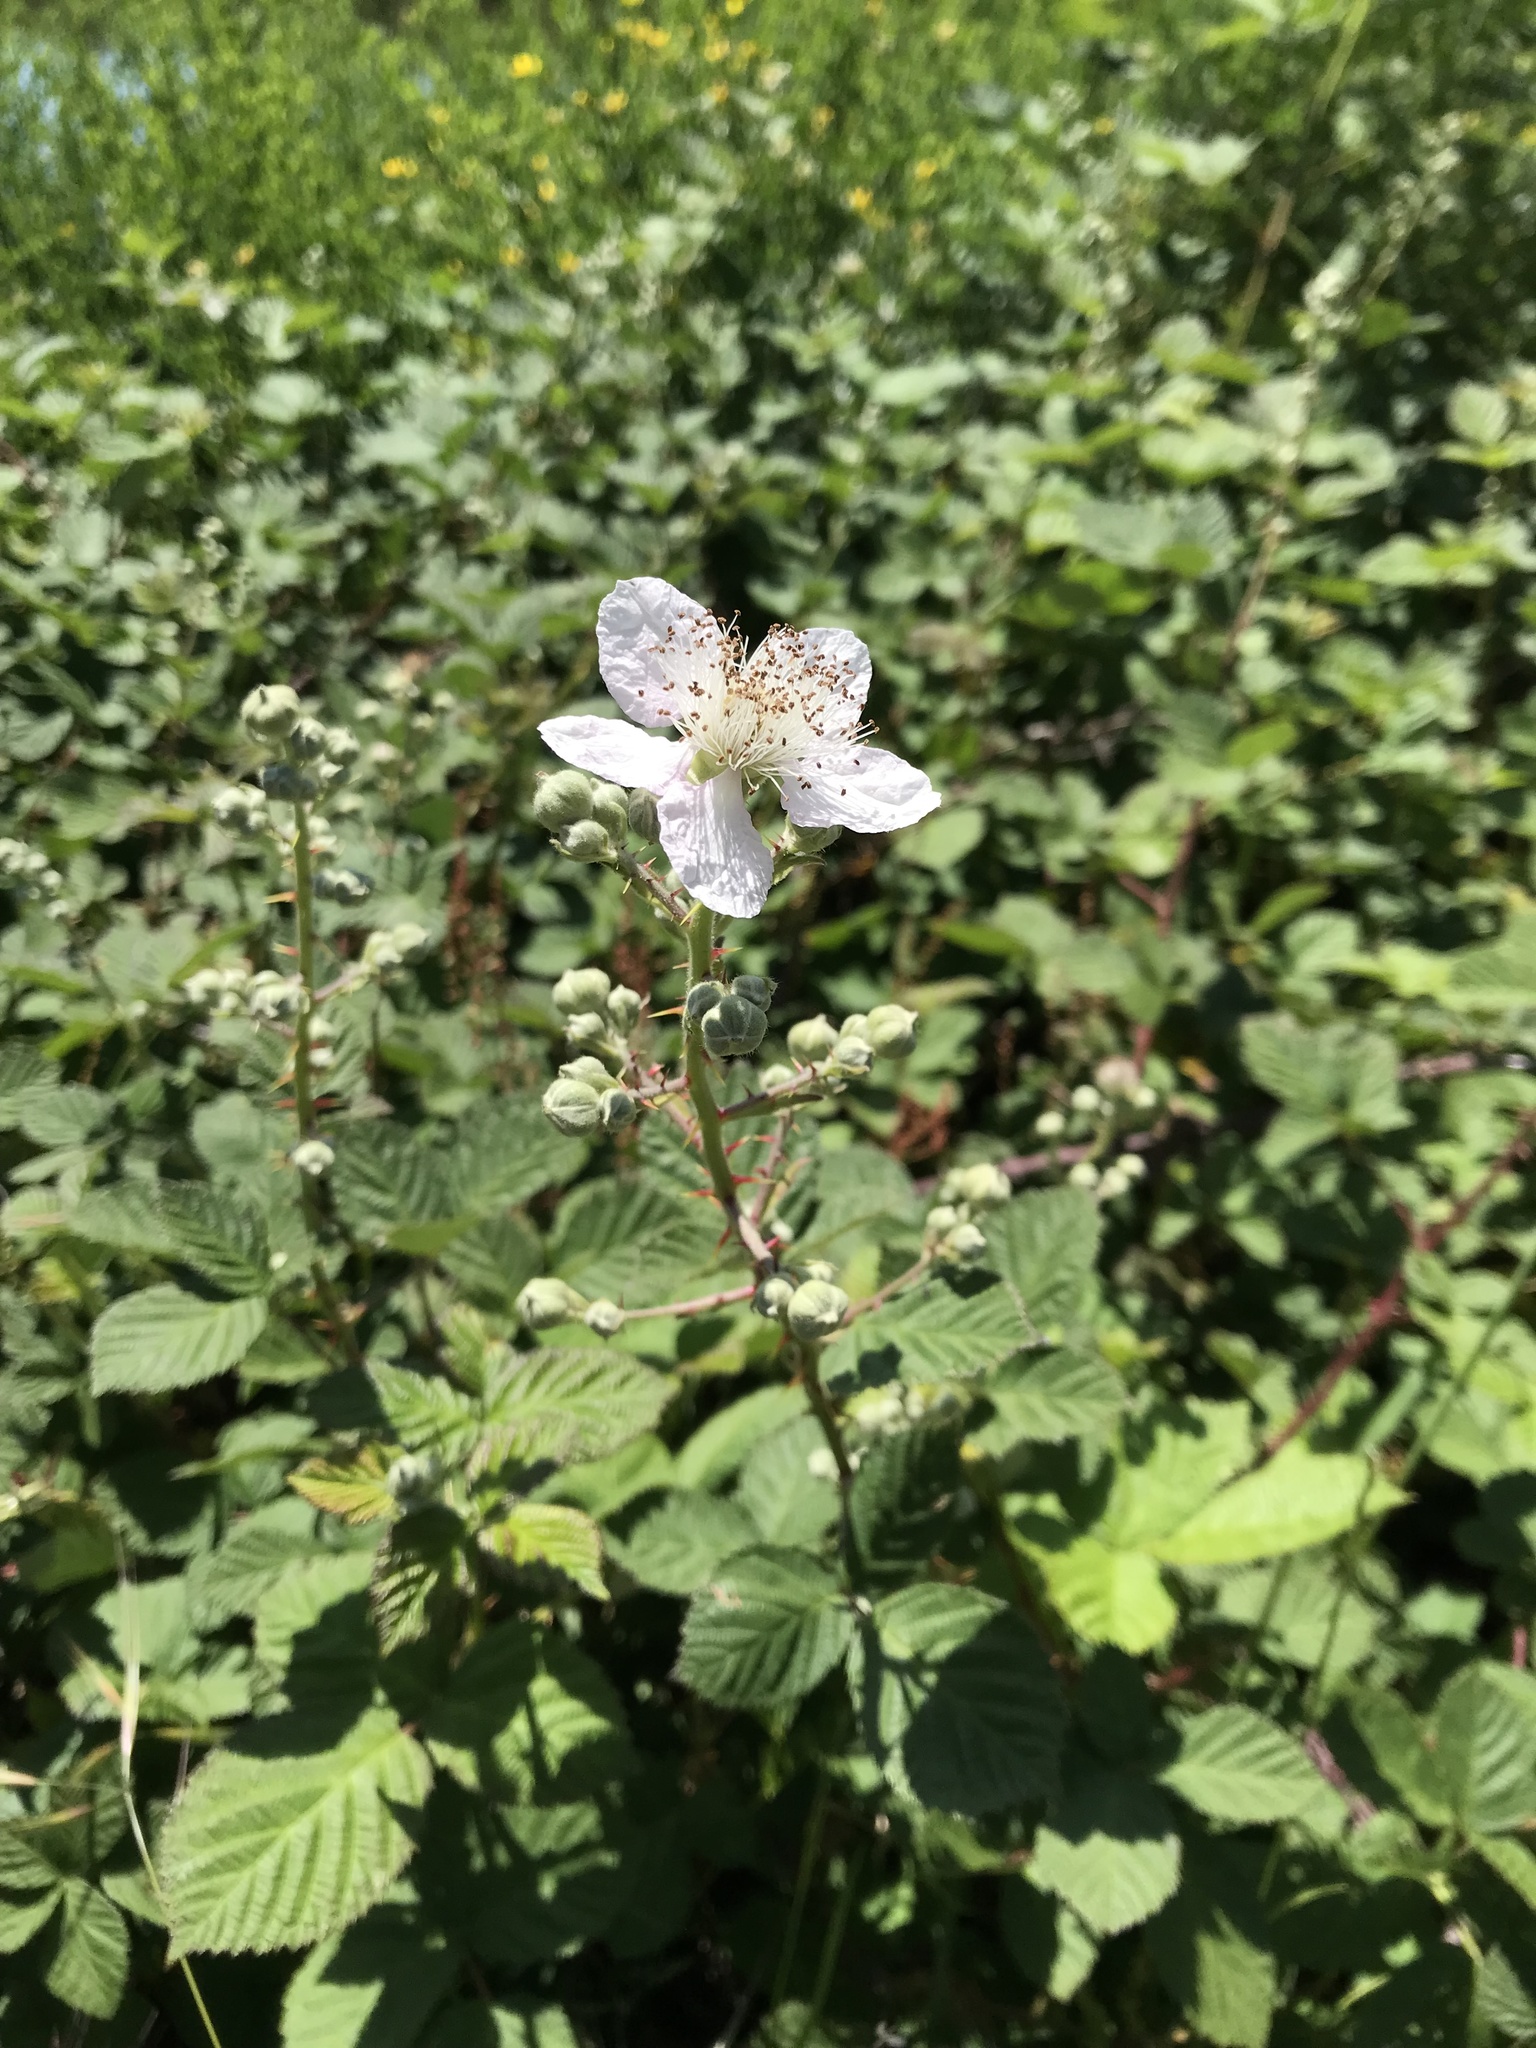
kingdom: Plantae
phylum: Tracheophyta
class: Magnoliopsida
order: Rosales
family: Rosaceae
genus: Rubus
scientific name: Rubus armeniacus
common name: Himalayan blackberry
